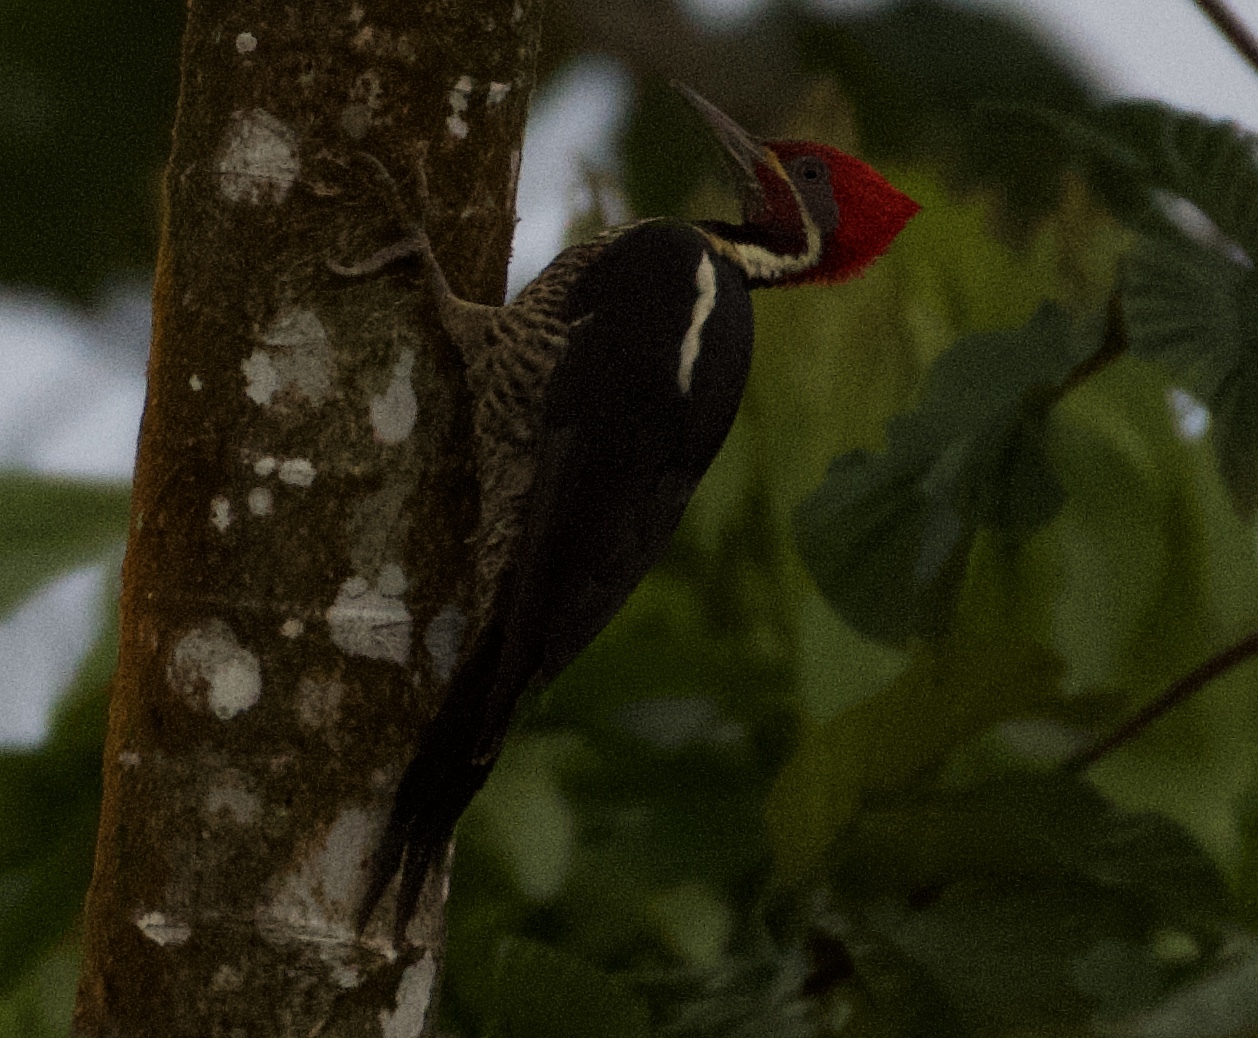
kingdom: Animalia
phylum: Chordata
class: Aves
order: Piciformes
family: Picidae
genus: Dryocopus
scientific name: Dryocopus lineatus
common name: Lineated woodpecker
